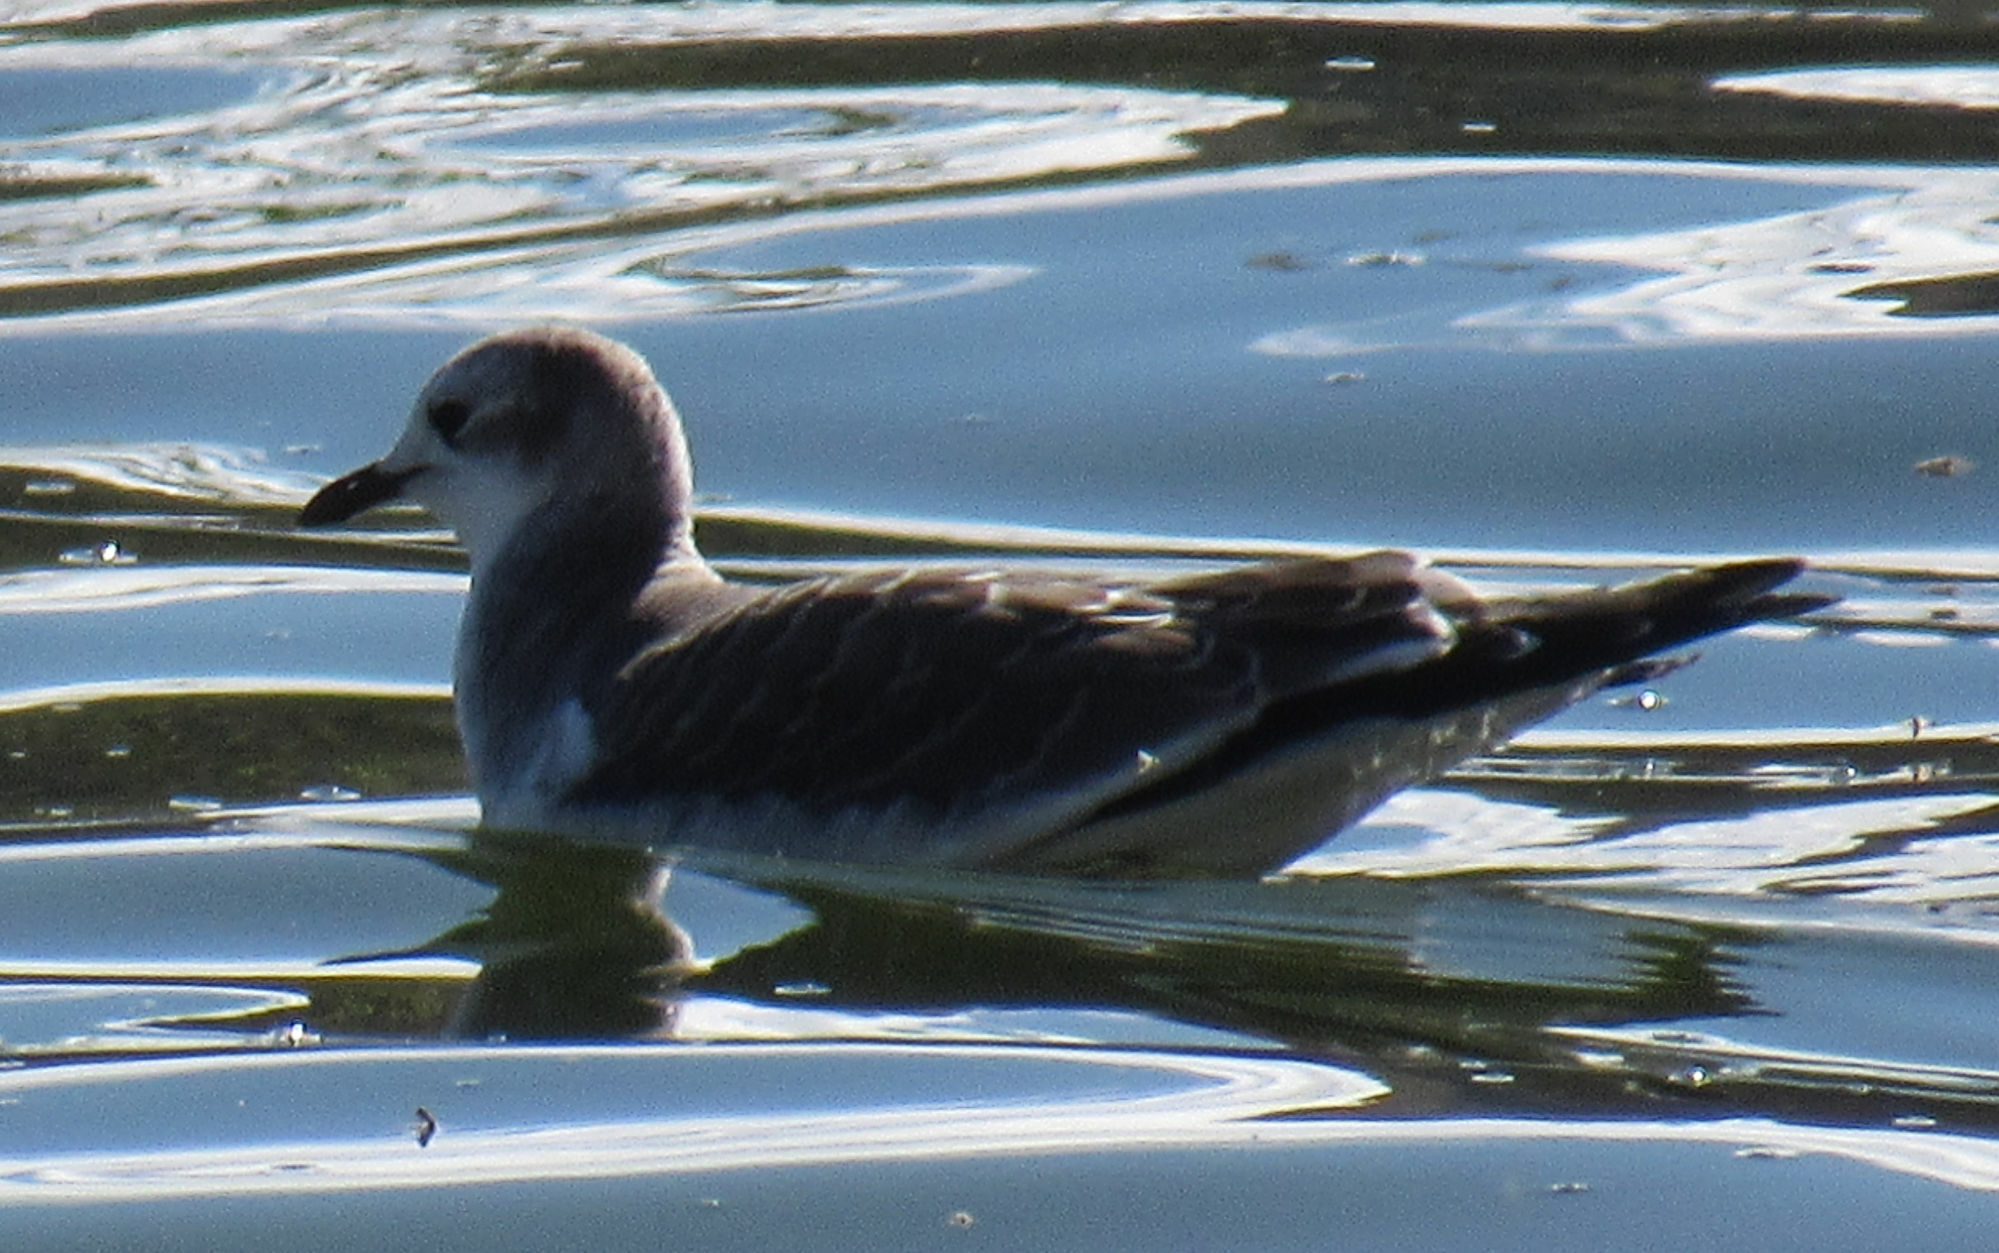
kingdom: Animalia
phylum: Chordata
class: Aves
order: Charadriiformes
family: Laridae
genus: Xema
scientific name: Xema sabini
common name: Sabine's gull
